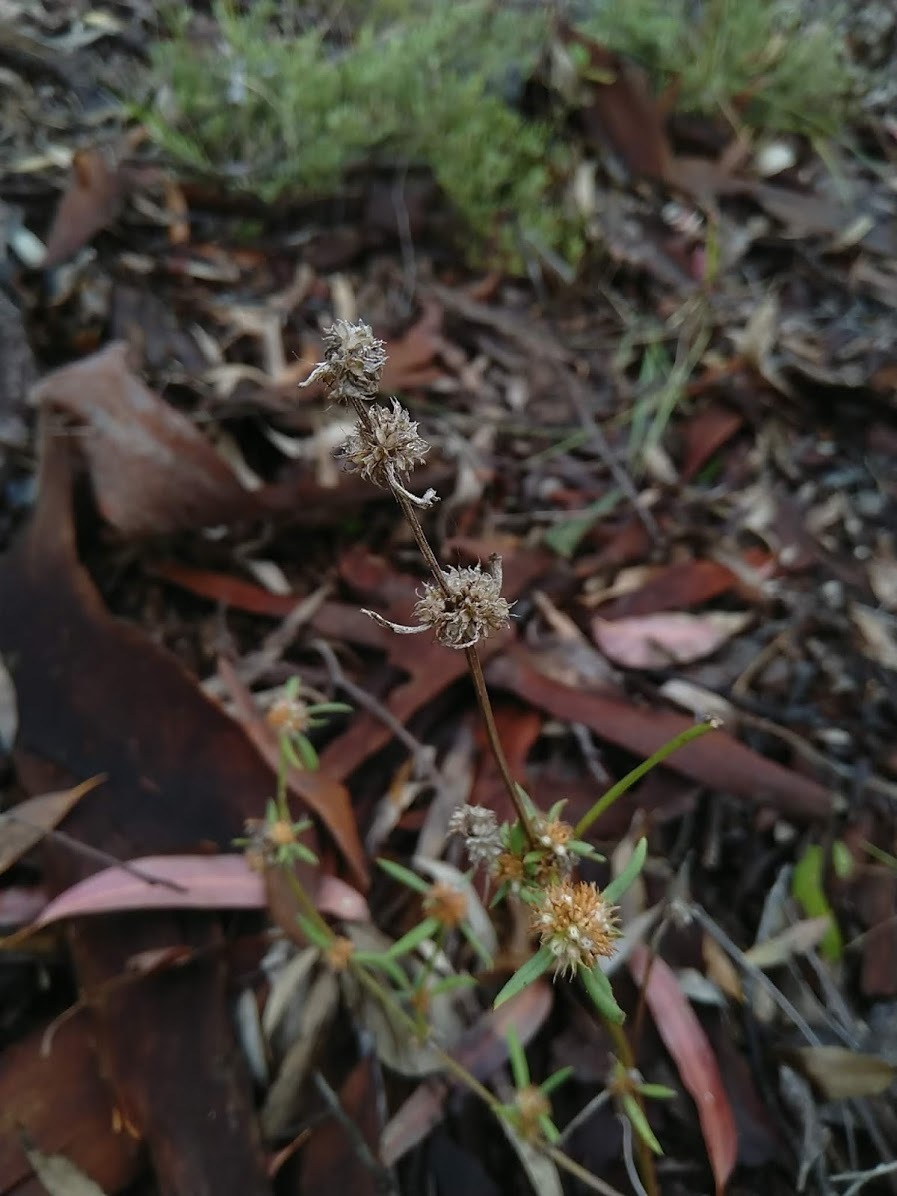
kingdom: Plantae
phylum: Tracheophyta
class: Magnoliopsida
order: Gentianales
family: Rubiaceae
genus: Spermacoce
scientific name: Spermacoce brachystema
